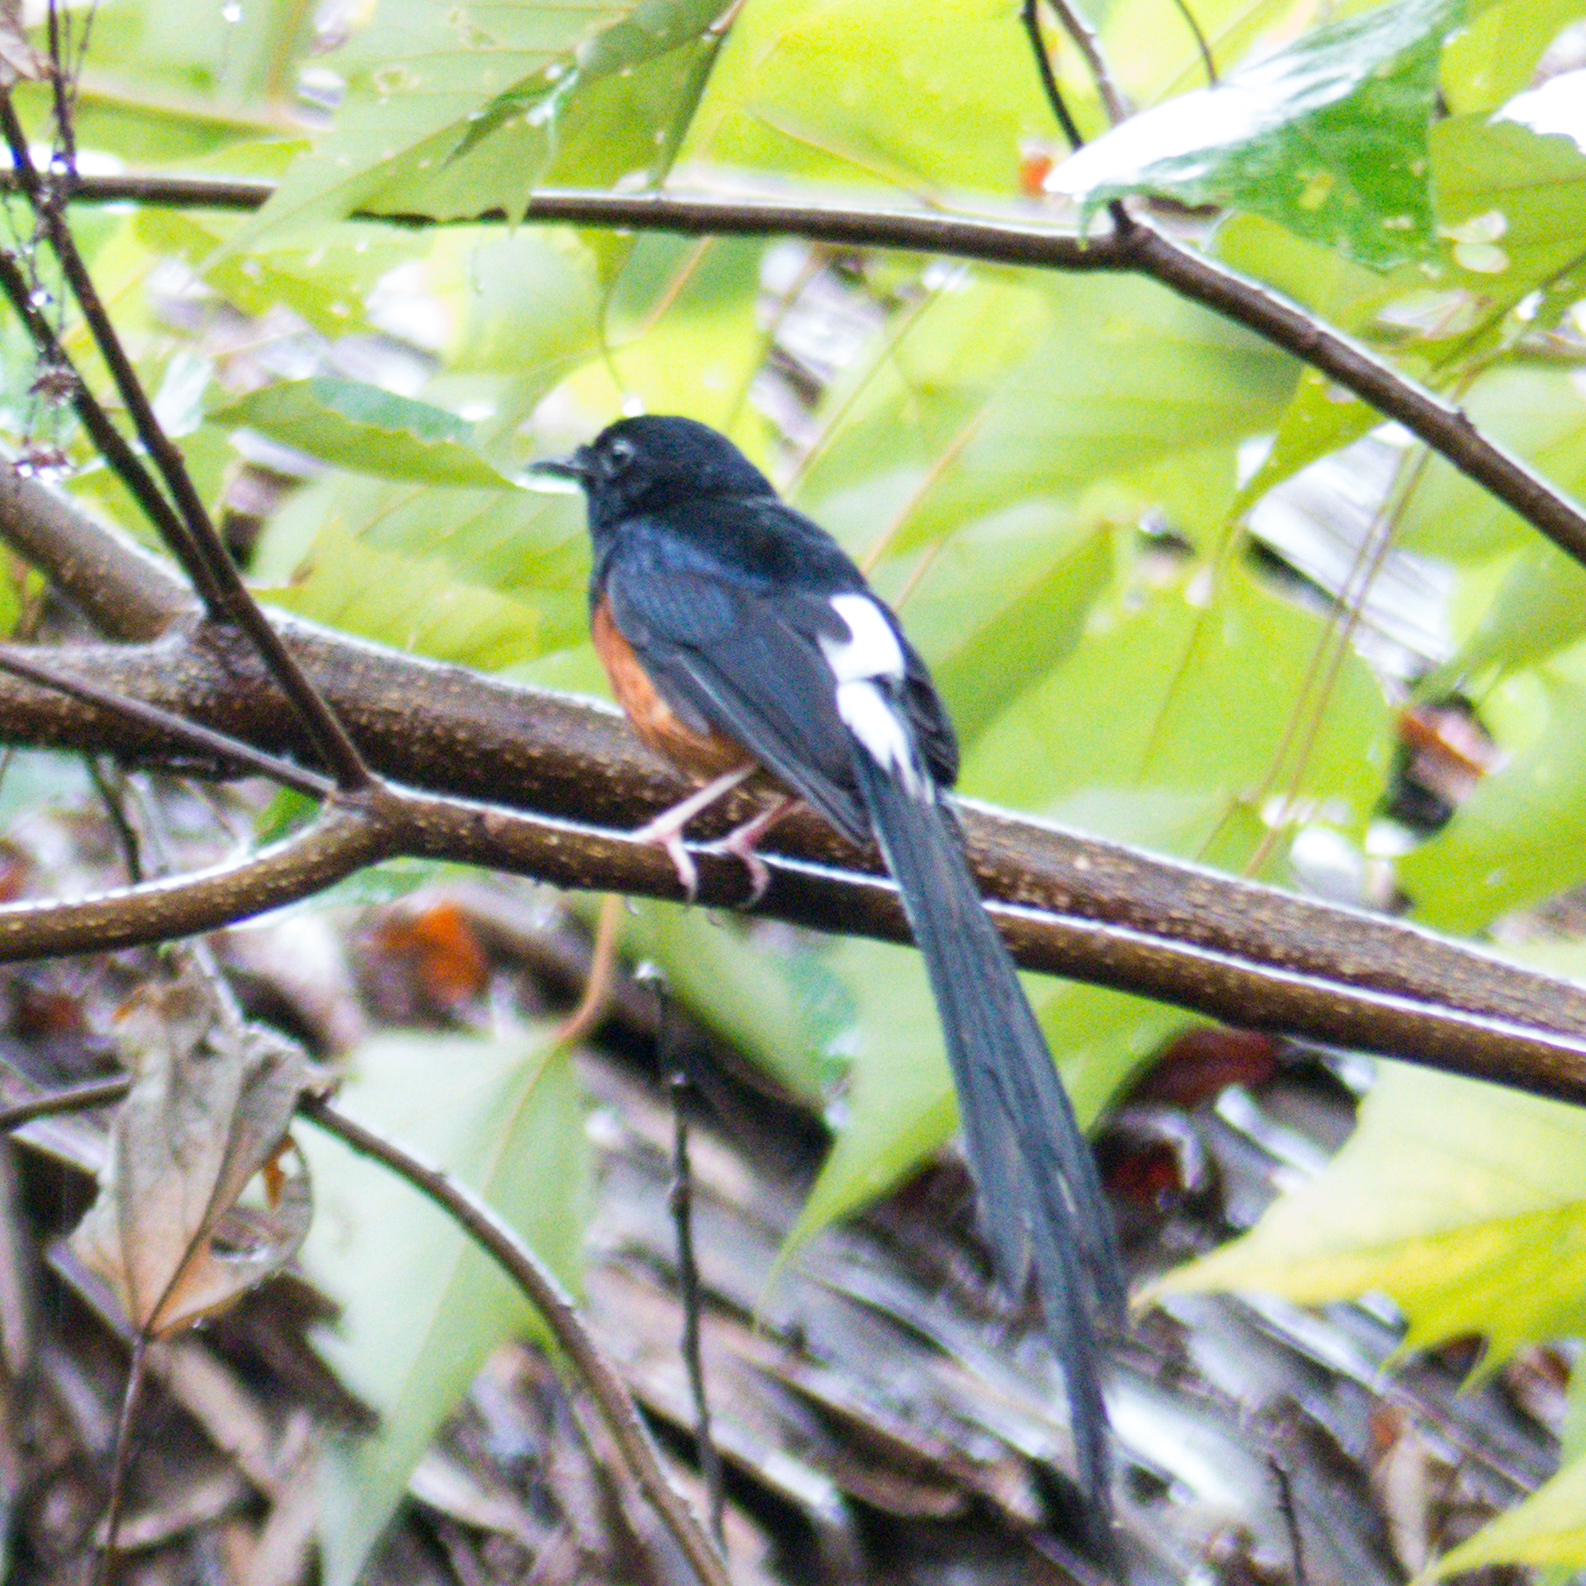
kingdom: Animalia
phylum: Chordata
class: Aves
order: Passeriformes
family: Muscicapidae
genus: Copsychus
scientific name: Copsychus malabaricus
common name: White-rumped shama
